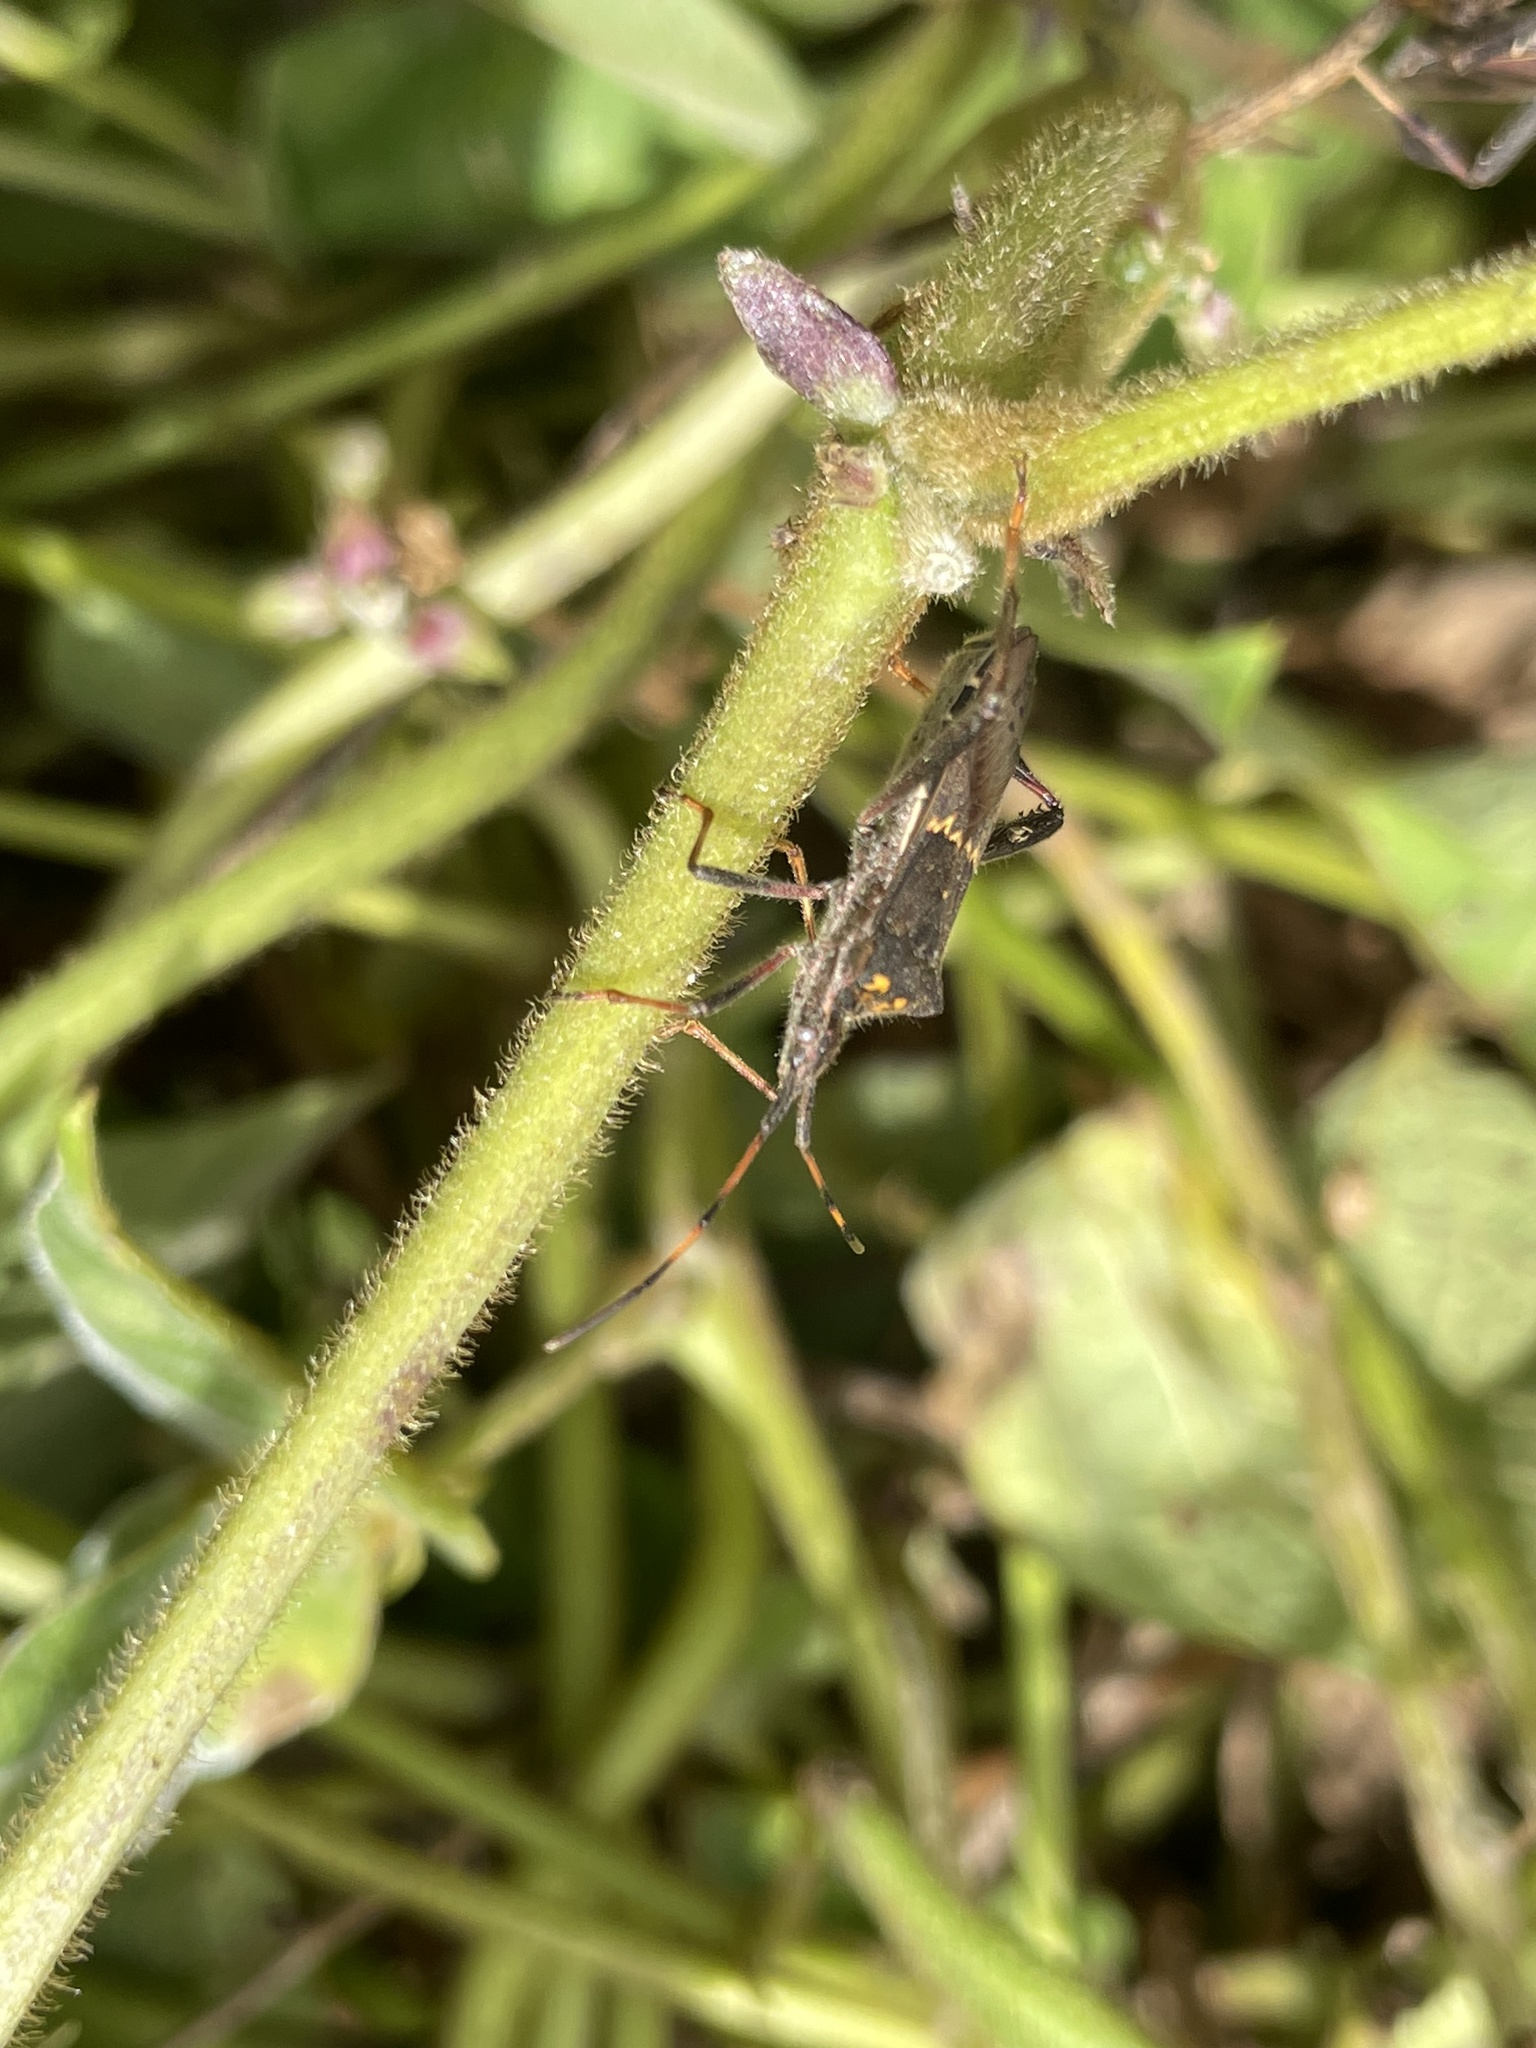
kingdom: Animalia
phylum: Arthropoda
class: Insecta
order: Hemiptera
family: Coreidae
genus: Leptoglossus
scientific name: Leptoglossus zonatus
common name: Large-legged bug
